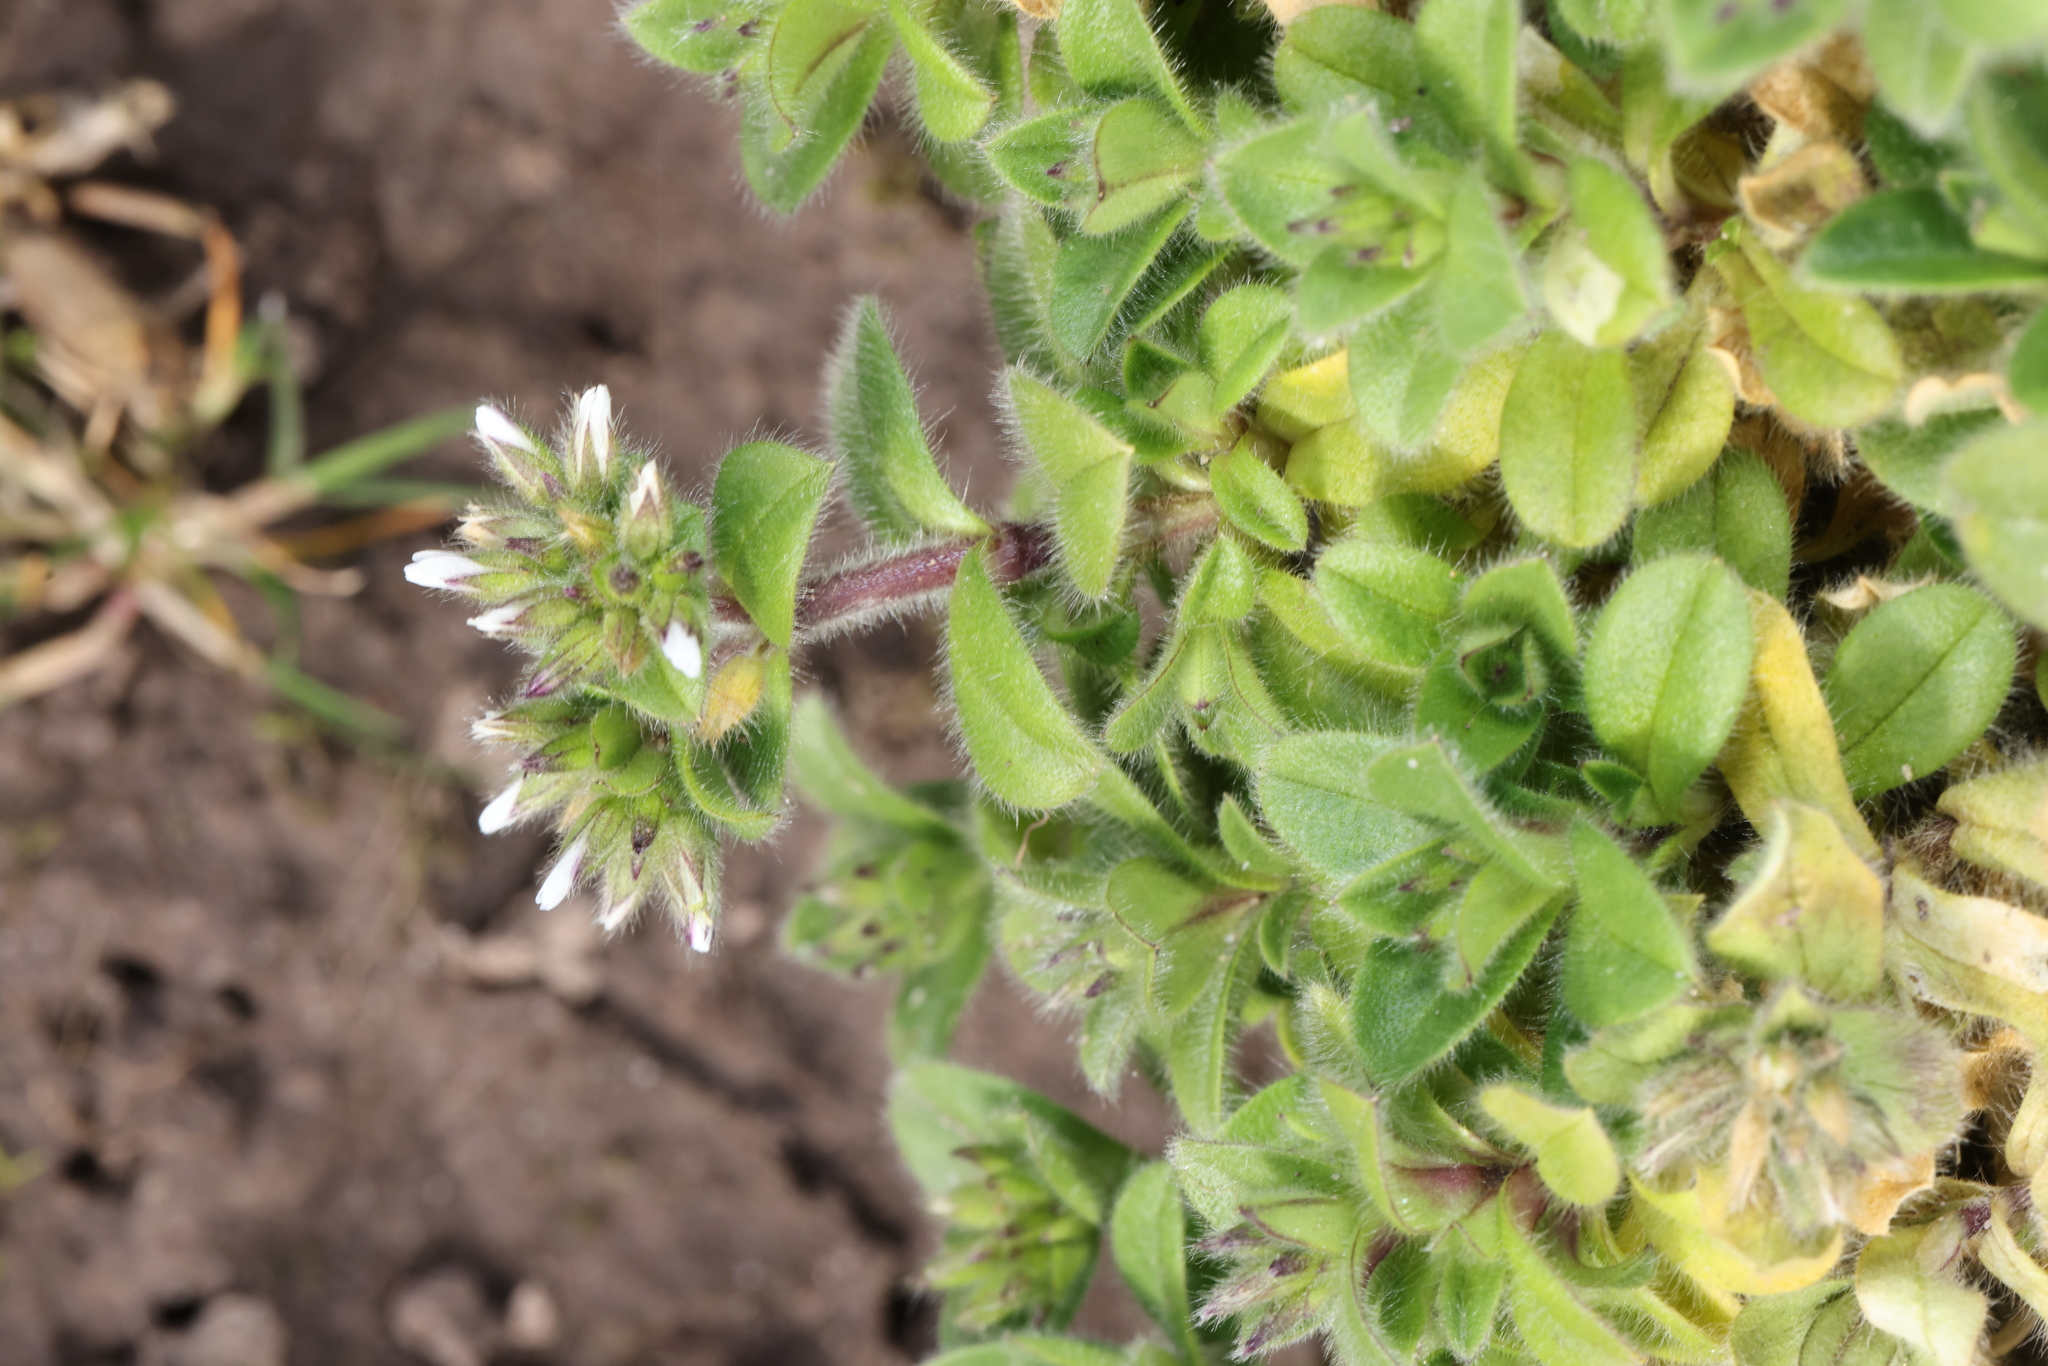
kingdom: Plantae
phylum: Tracheophyta
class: Magnoliopsida
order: Caryophyllales
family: Caryophyllaceae
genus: Cerastium
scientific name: Cerastium glomeratum
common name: Sticky chickweed
